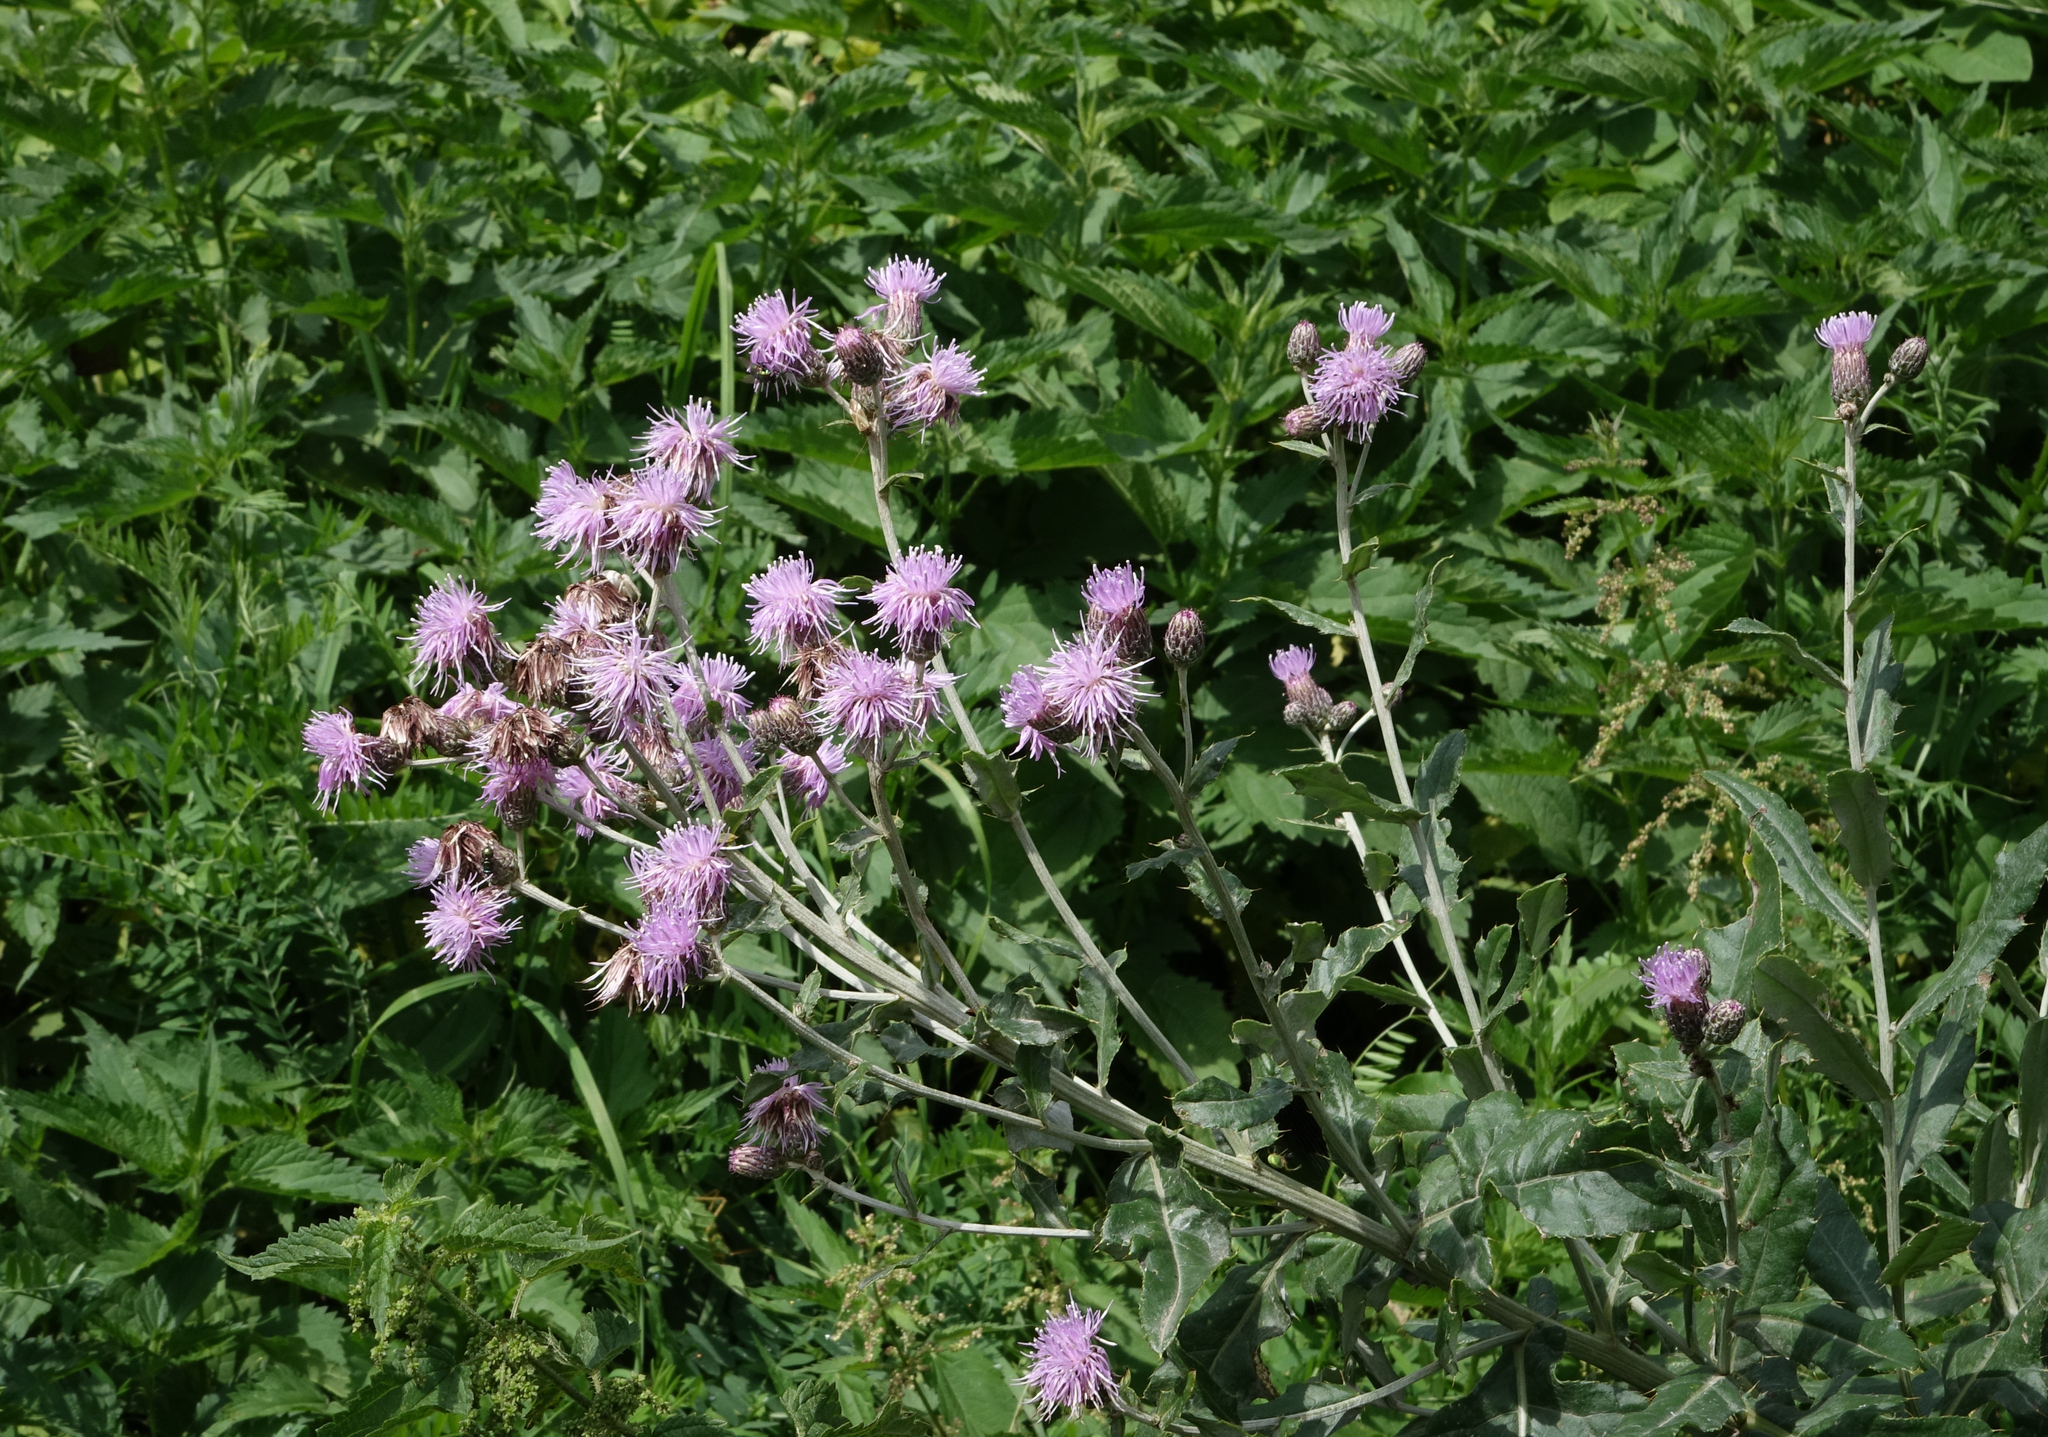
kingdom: Plantae
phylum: Tracheophyta
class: Magnoliopsida
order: Asterales
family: Asteraceae
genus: Cirsium
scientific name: Cirsium arvense
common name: Creeping thistle
